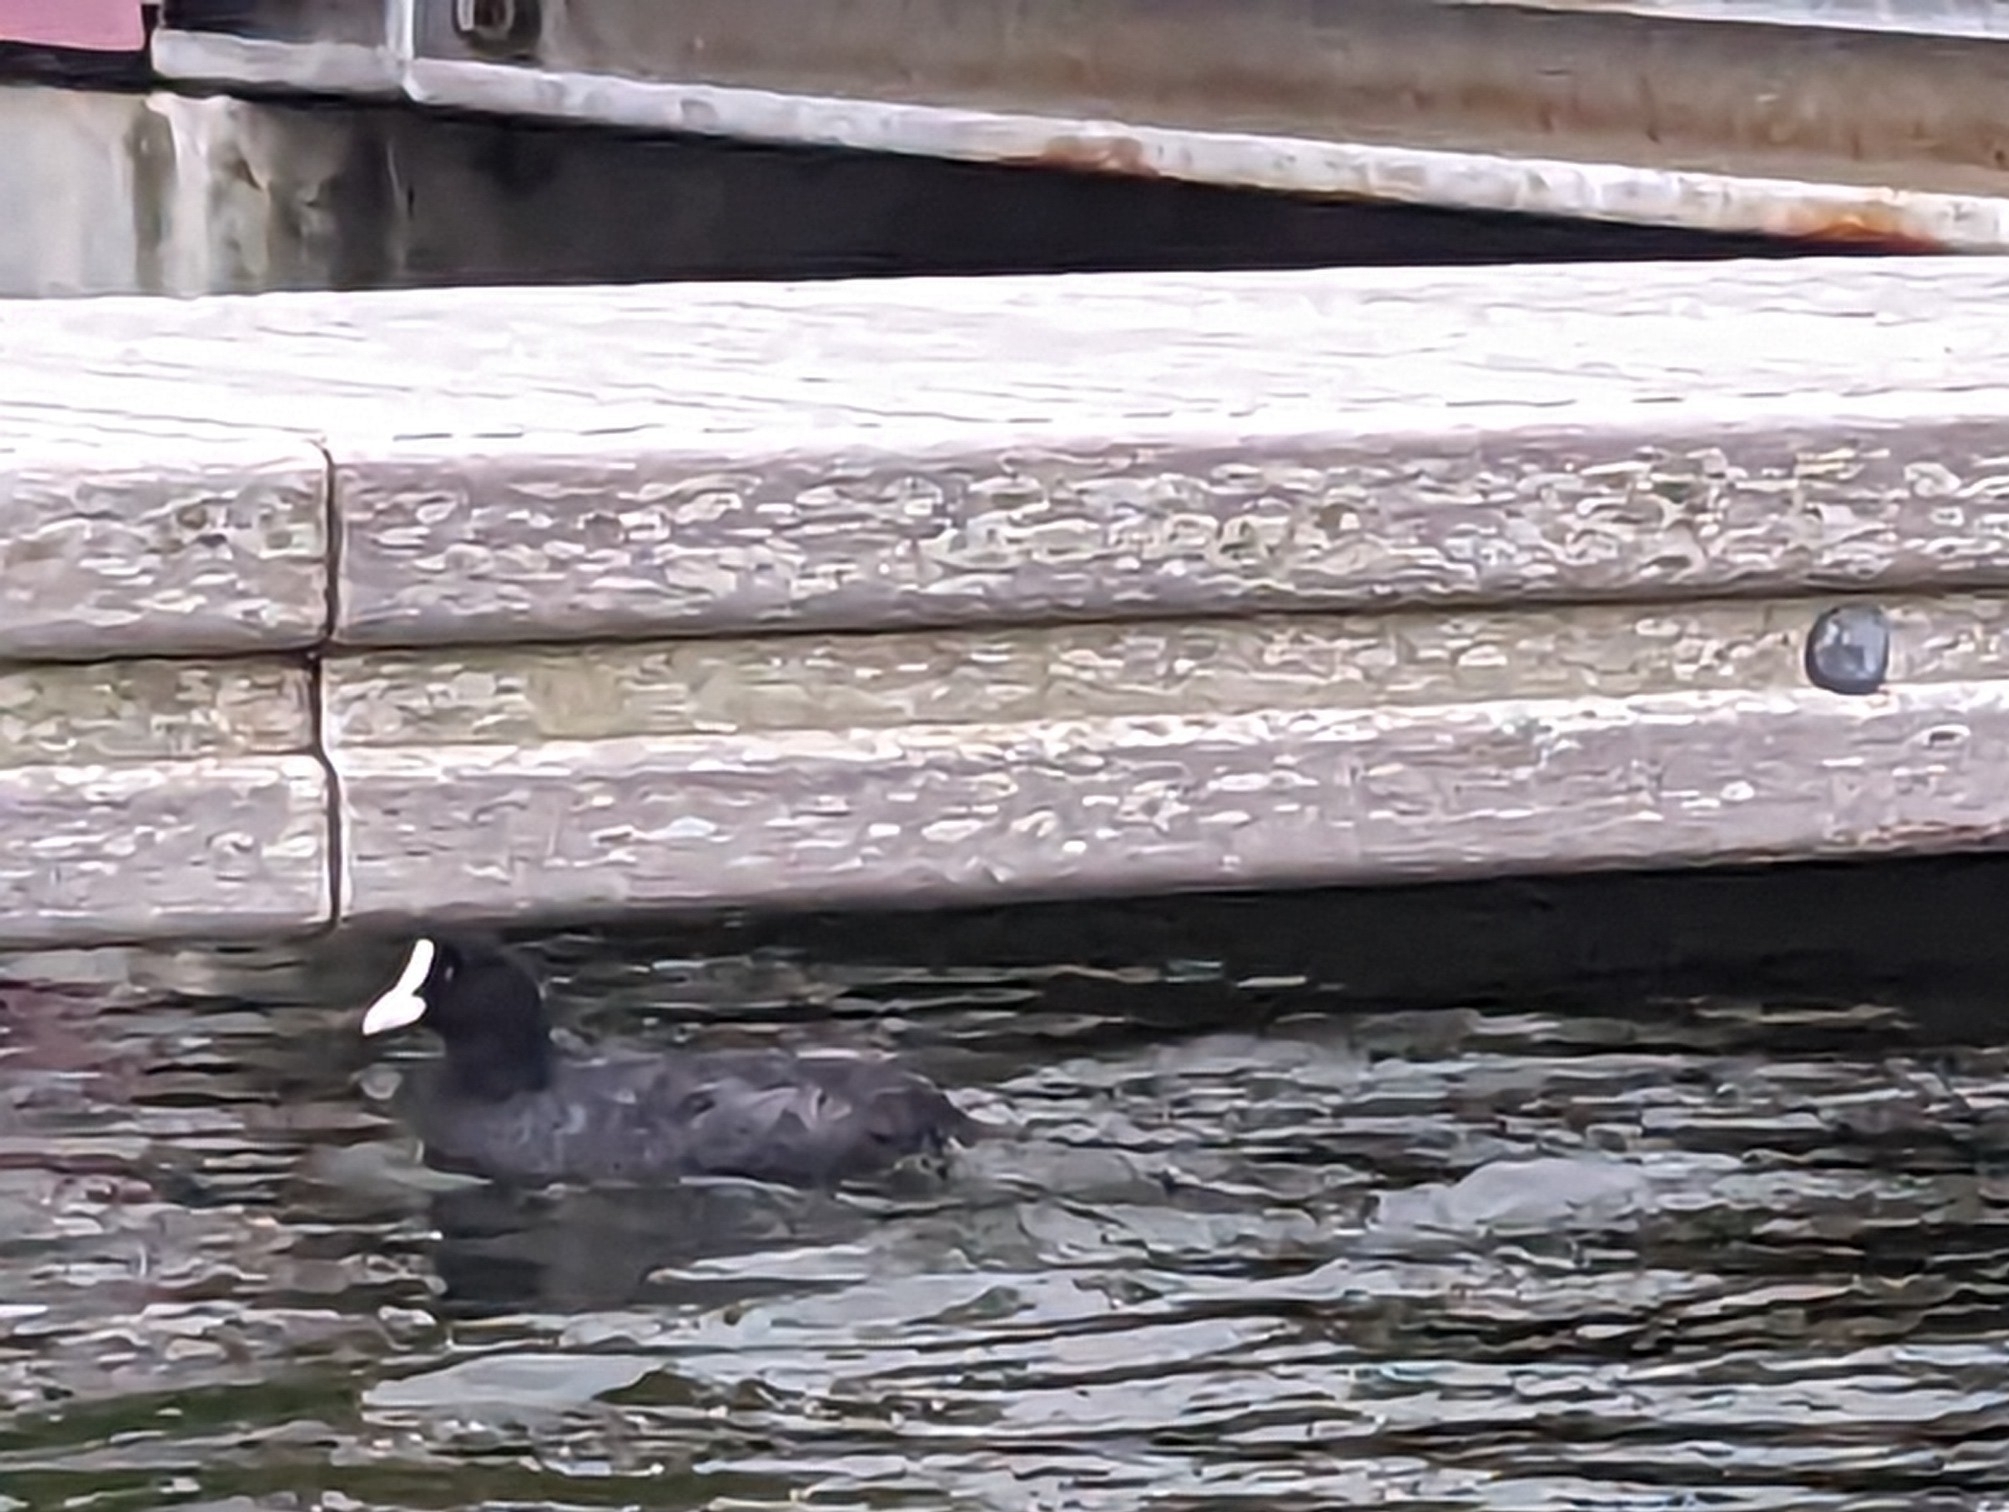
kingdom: Animalia
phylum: Chordata
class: Aves
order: Gruiformes
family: Rallidae
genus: Fulica
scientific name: Fulica atra
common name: Eurasian coot
